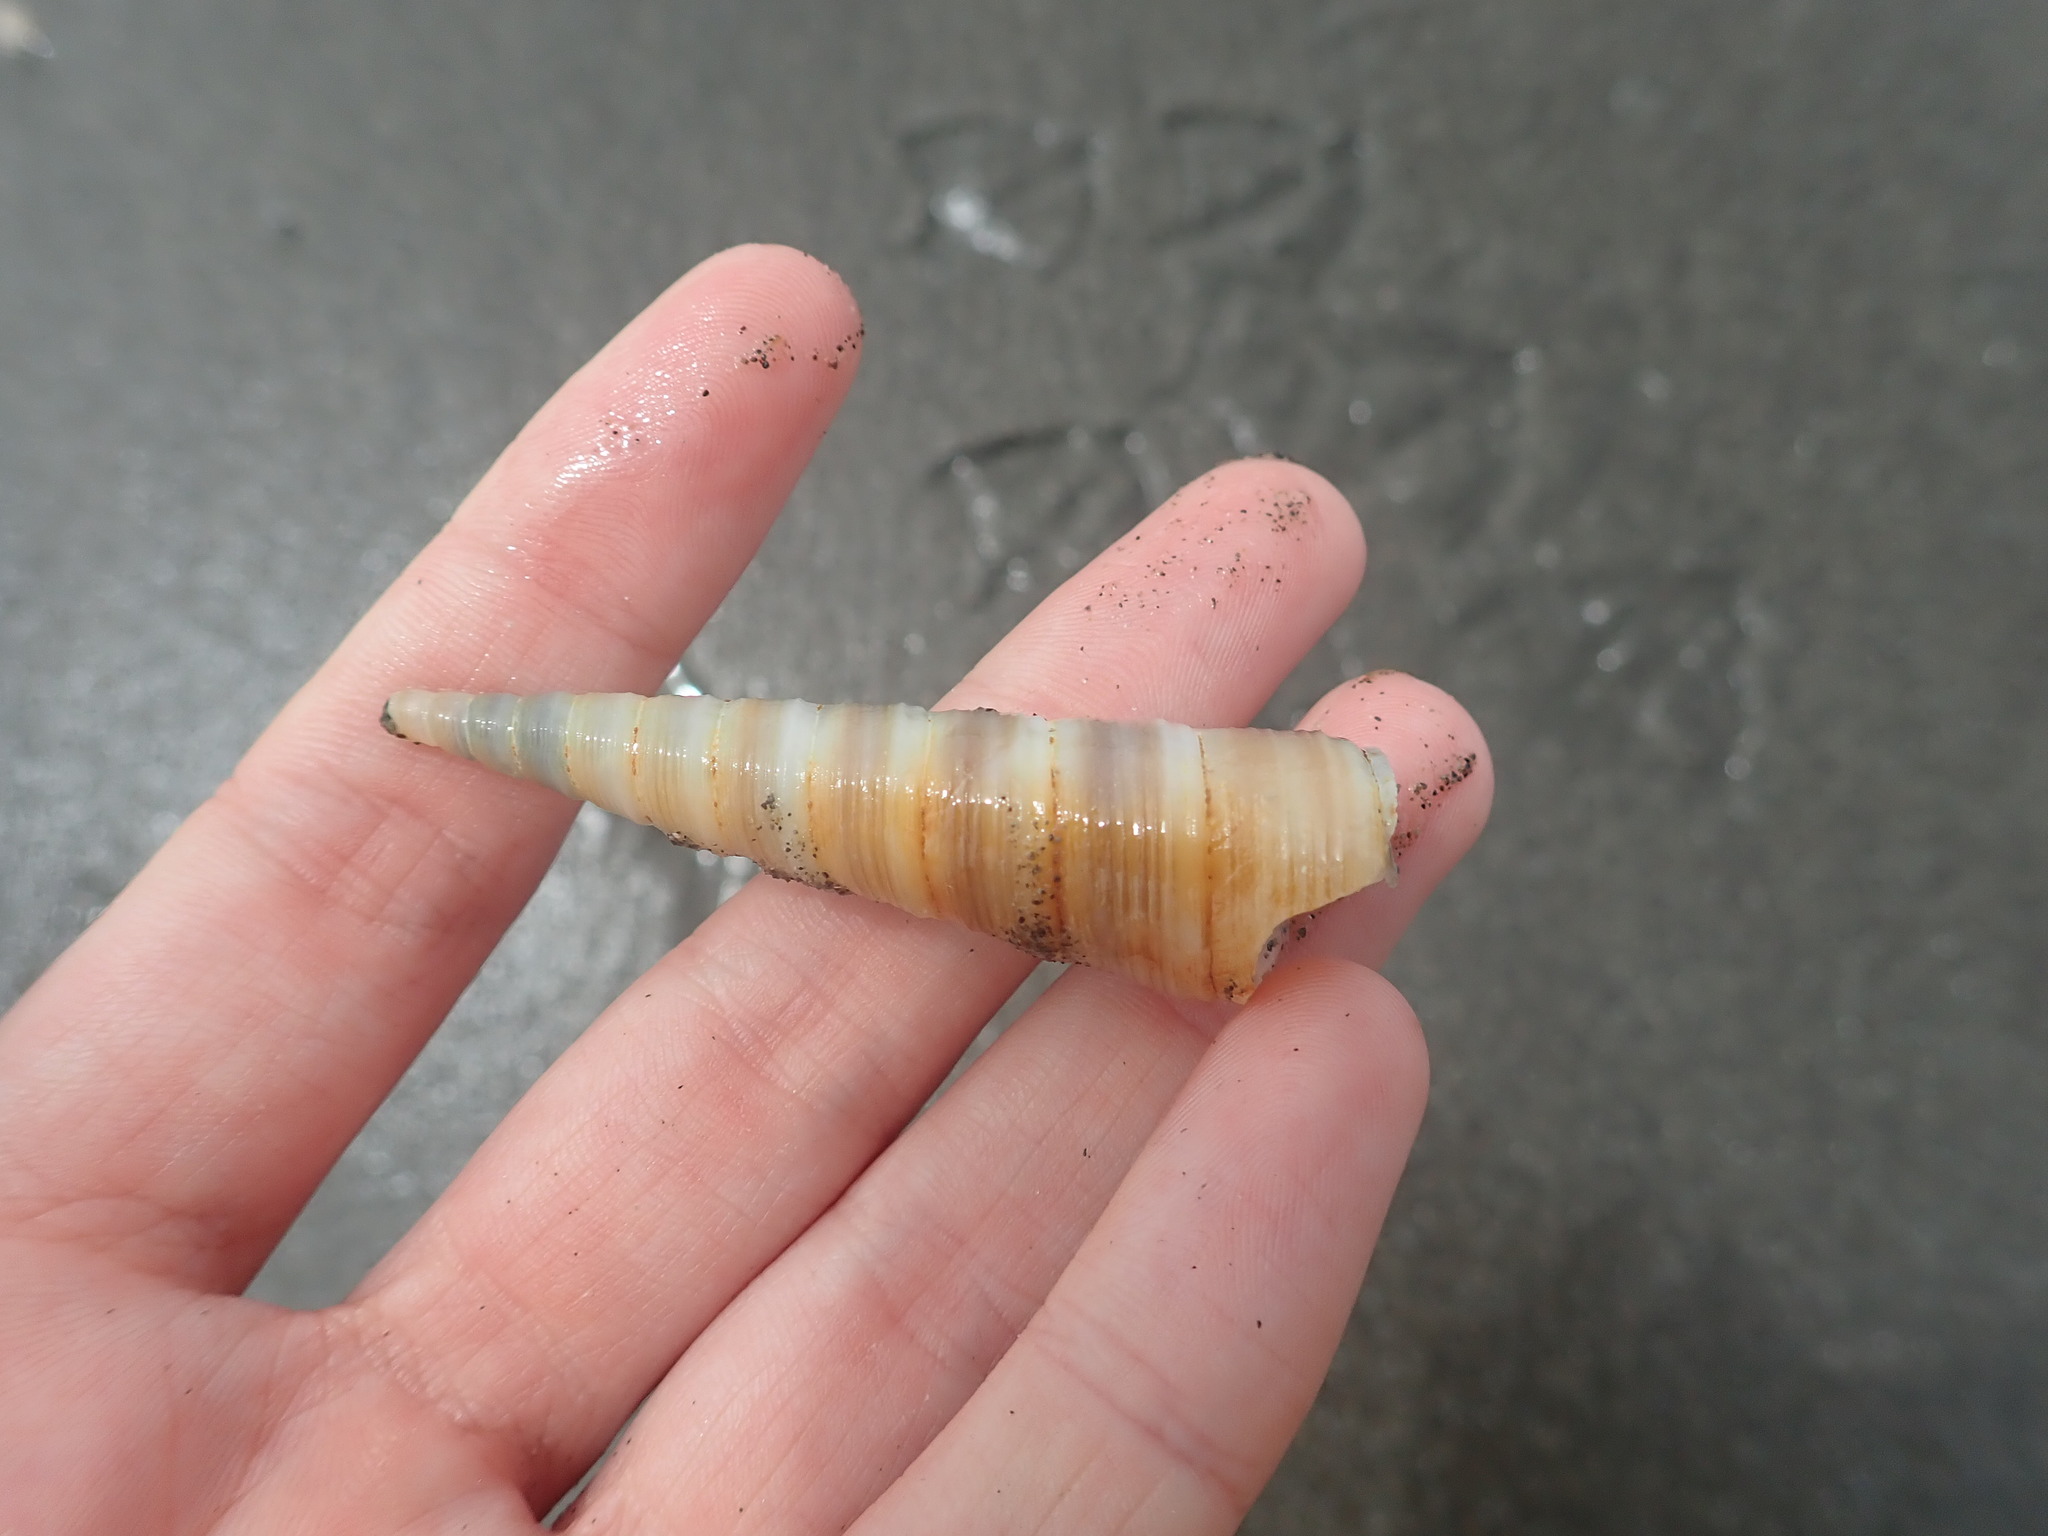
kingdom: Animalia
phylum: Mollusca
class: Gastropoda
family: Turritellidae
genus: Zeacolpus
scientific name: Zeacolpus vittatus
